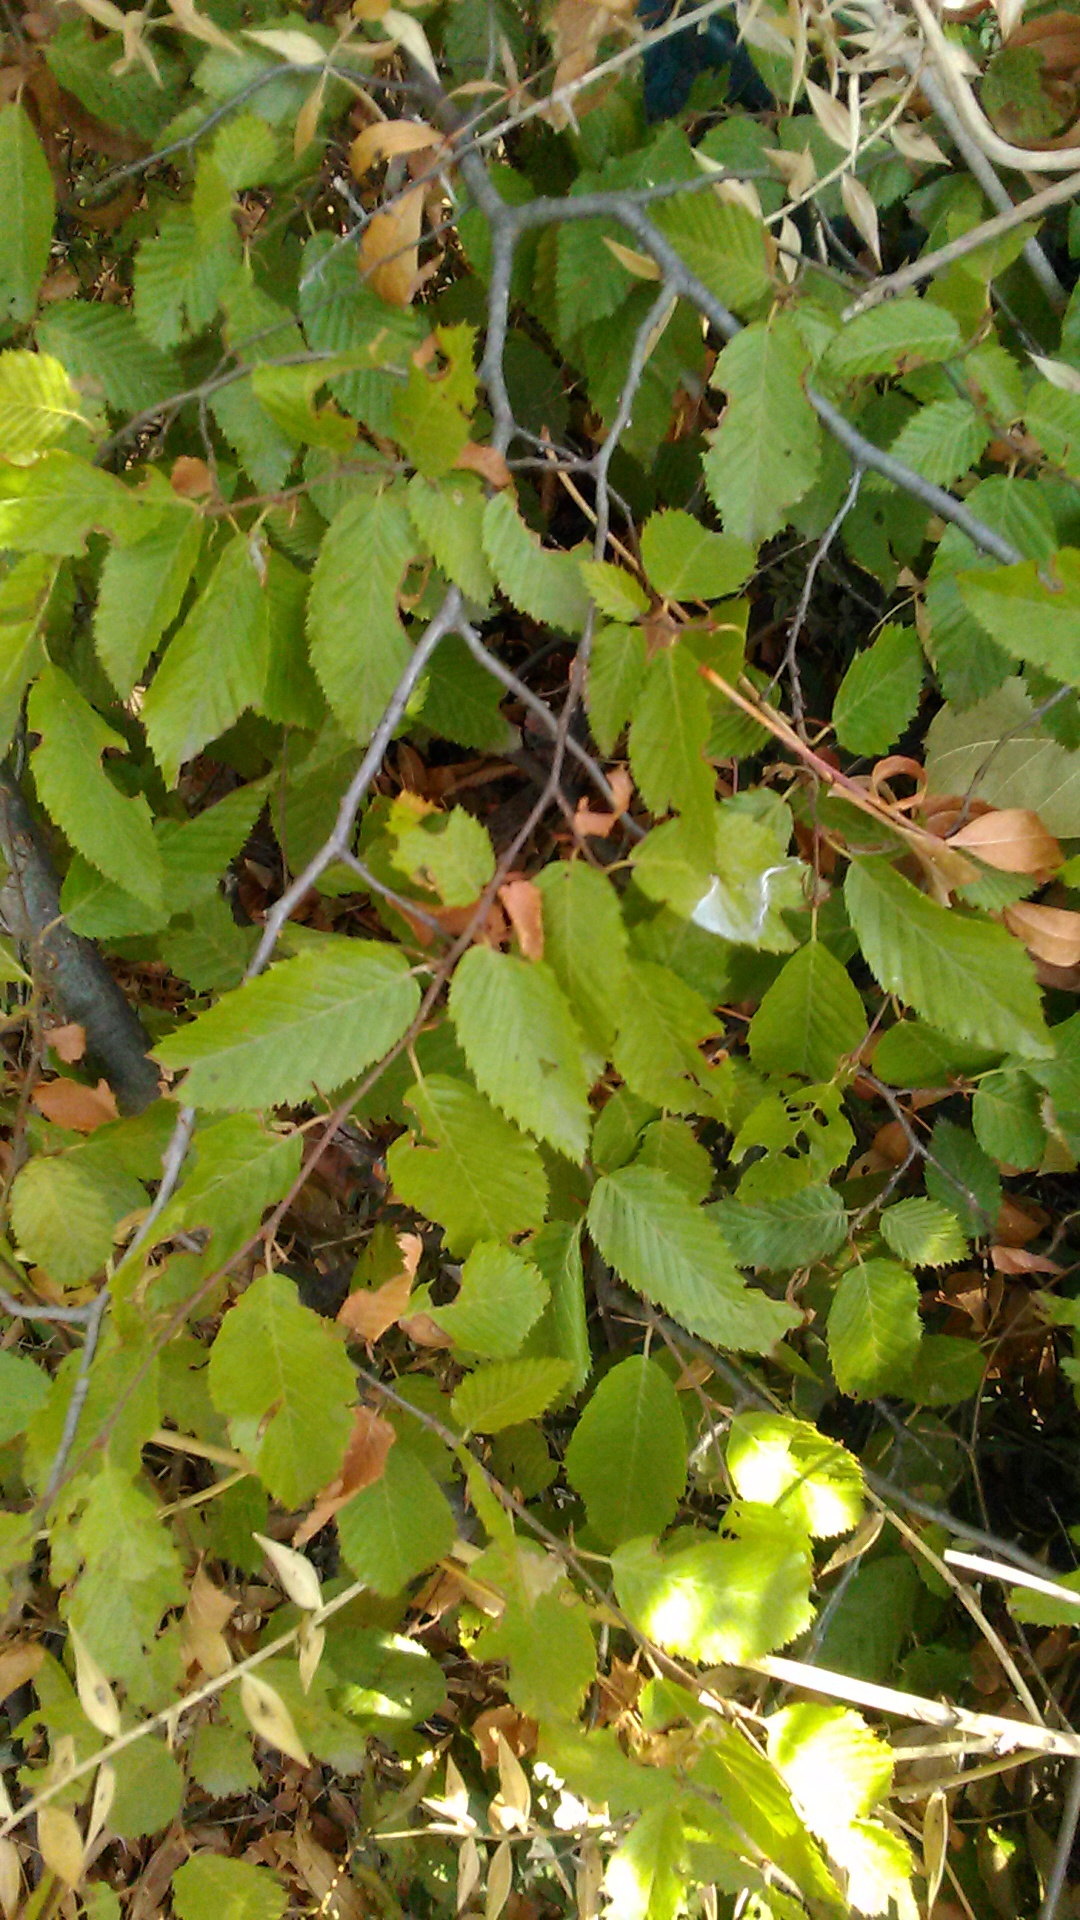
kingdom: Plantae
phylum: Tracheophyta
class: Magnoliopsida
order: Fagales
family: Betulaceae
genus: Carpinus
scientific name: Carpinus orientalis
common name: Eastern hornbeam
